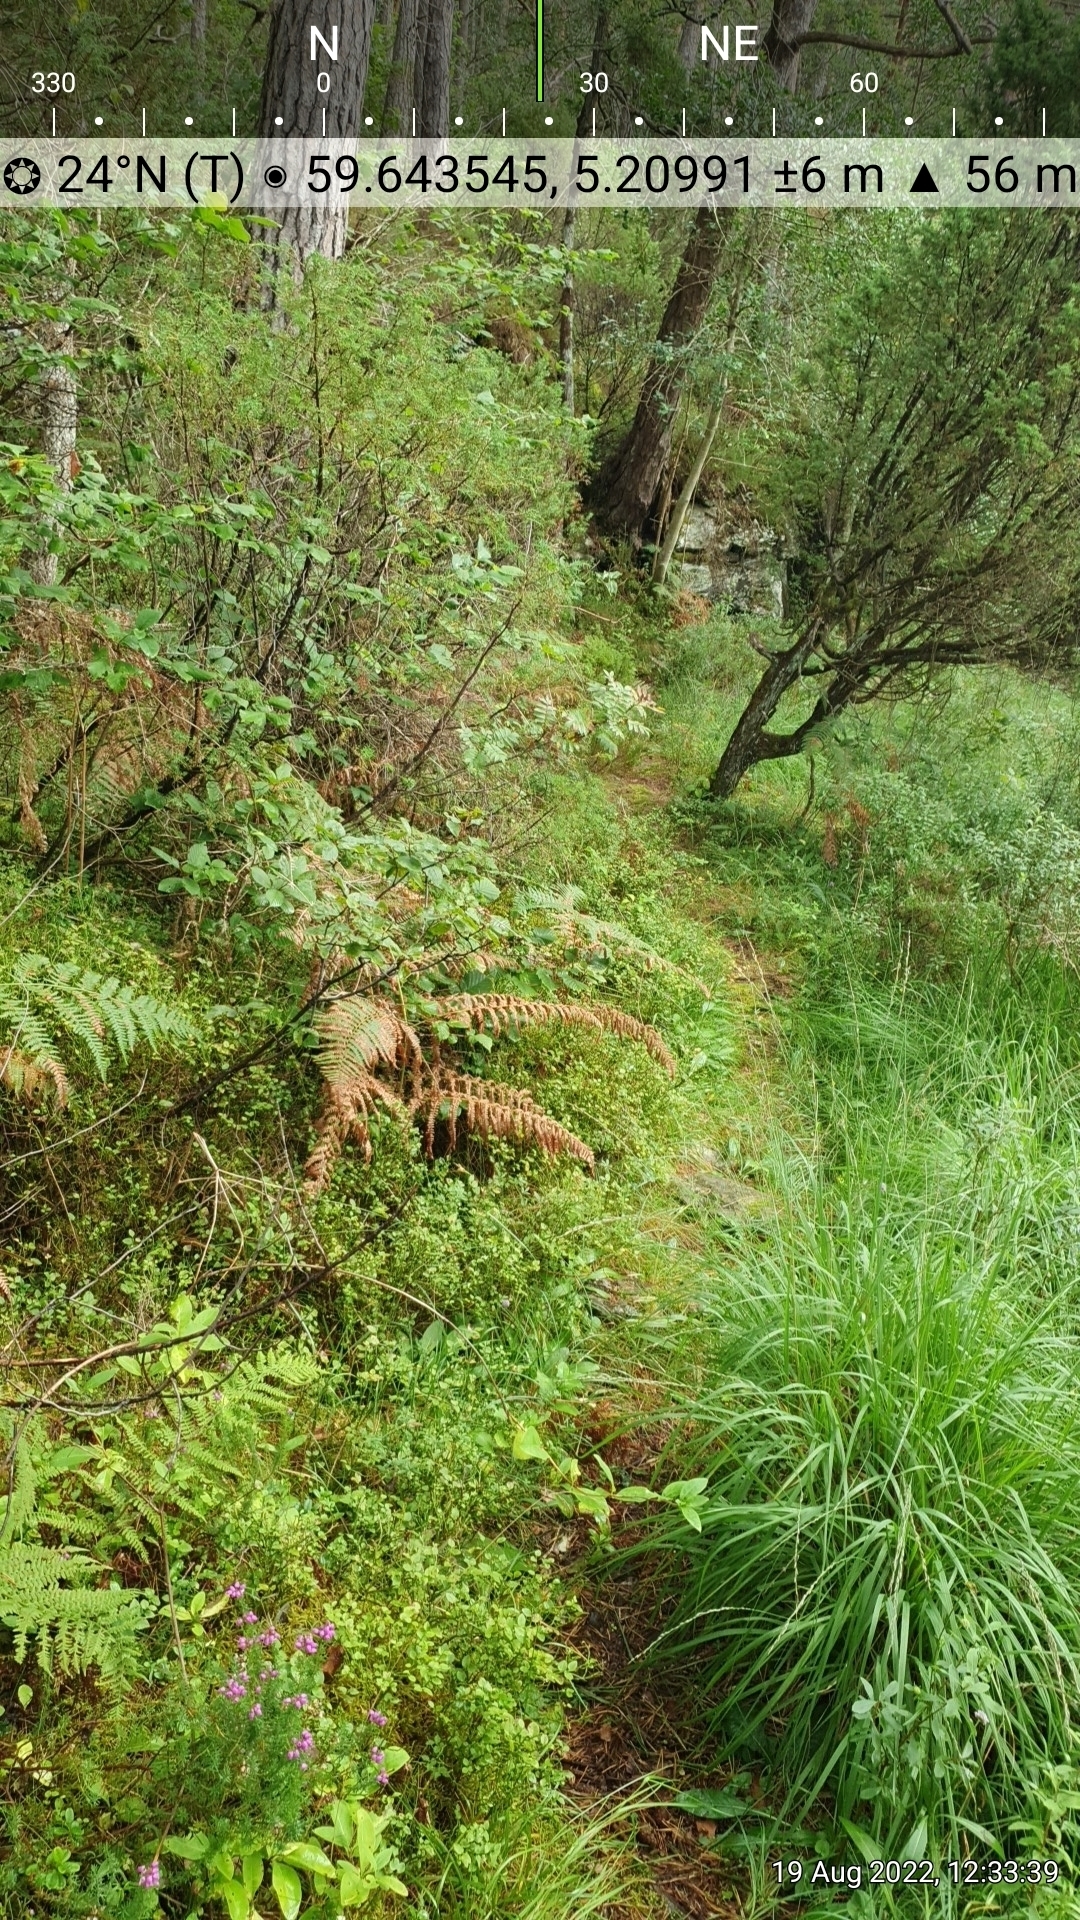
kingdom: Plantae
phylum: Tracheophyta
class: Magnoliopsida
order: Ericales
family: Ericaceae
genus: Erica
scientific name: Erica cinerea
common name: Bell heather
